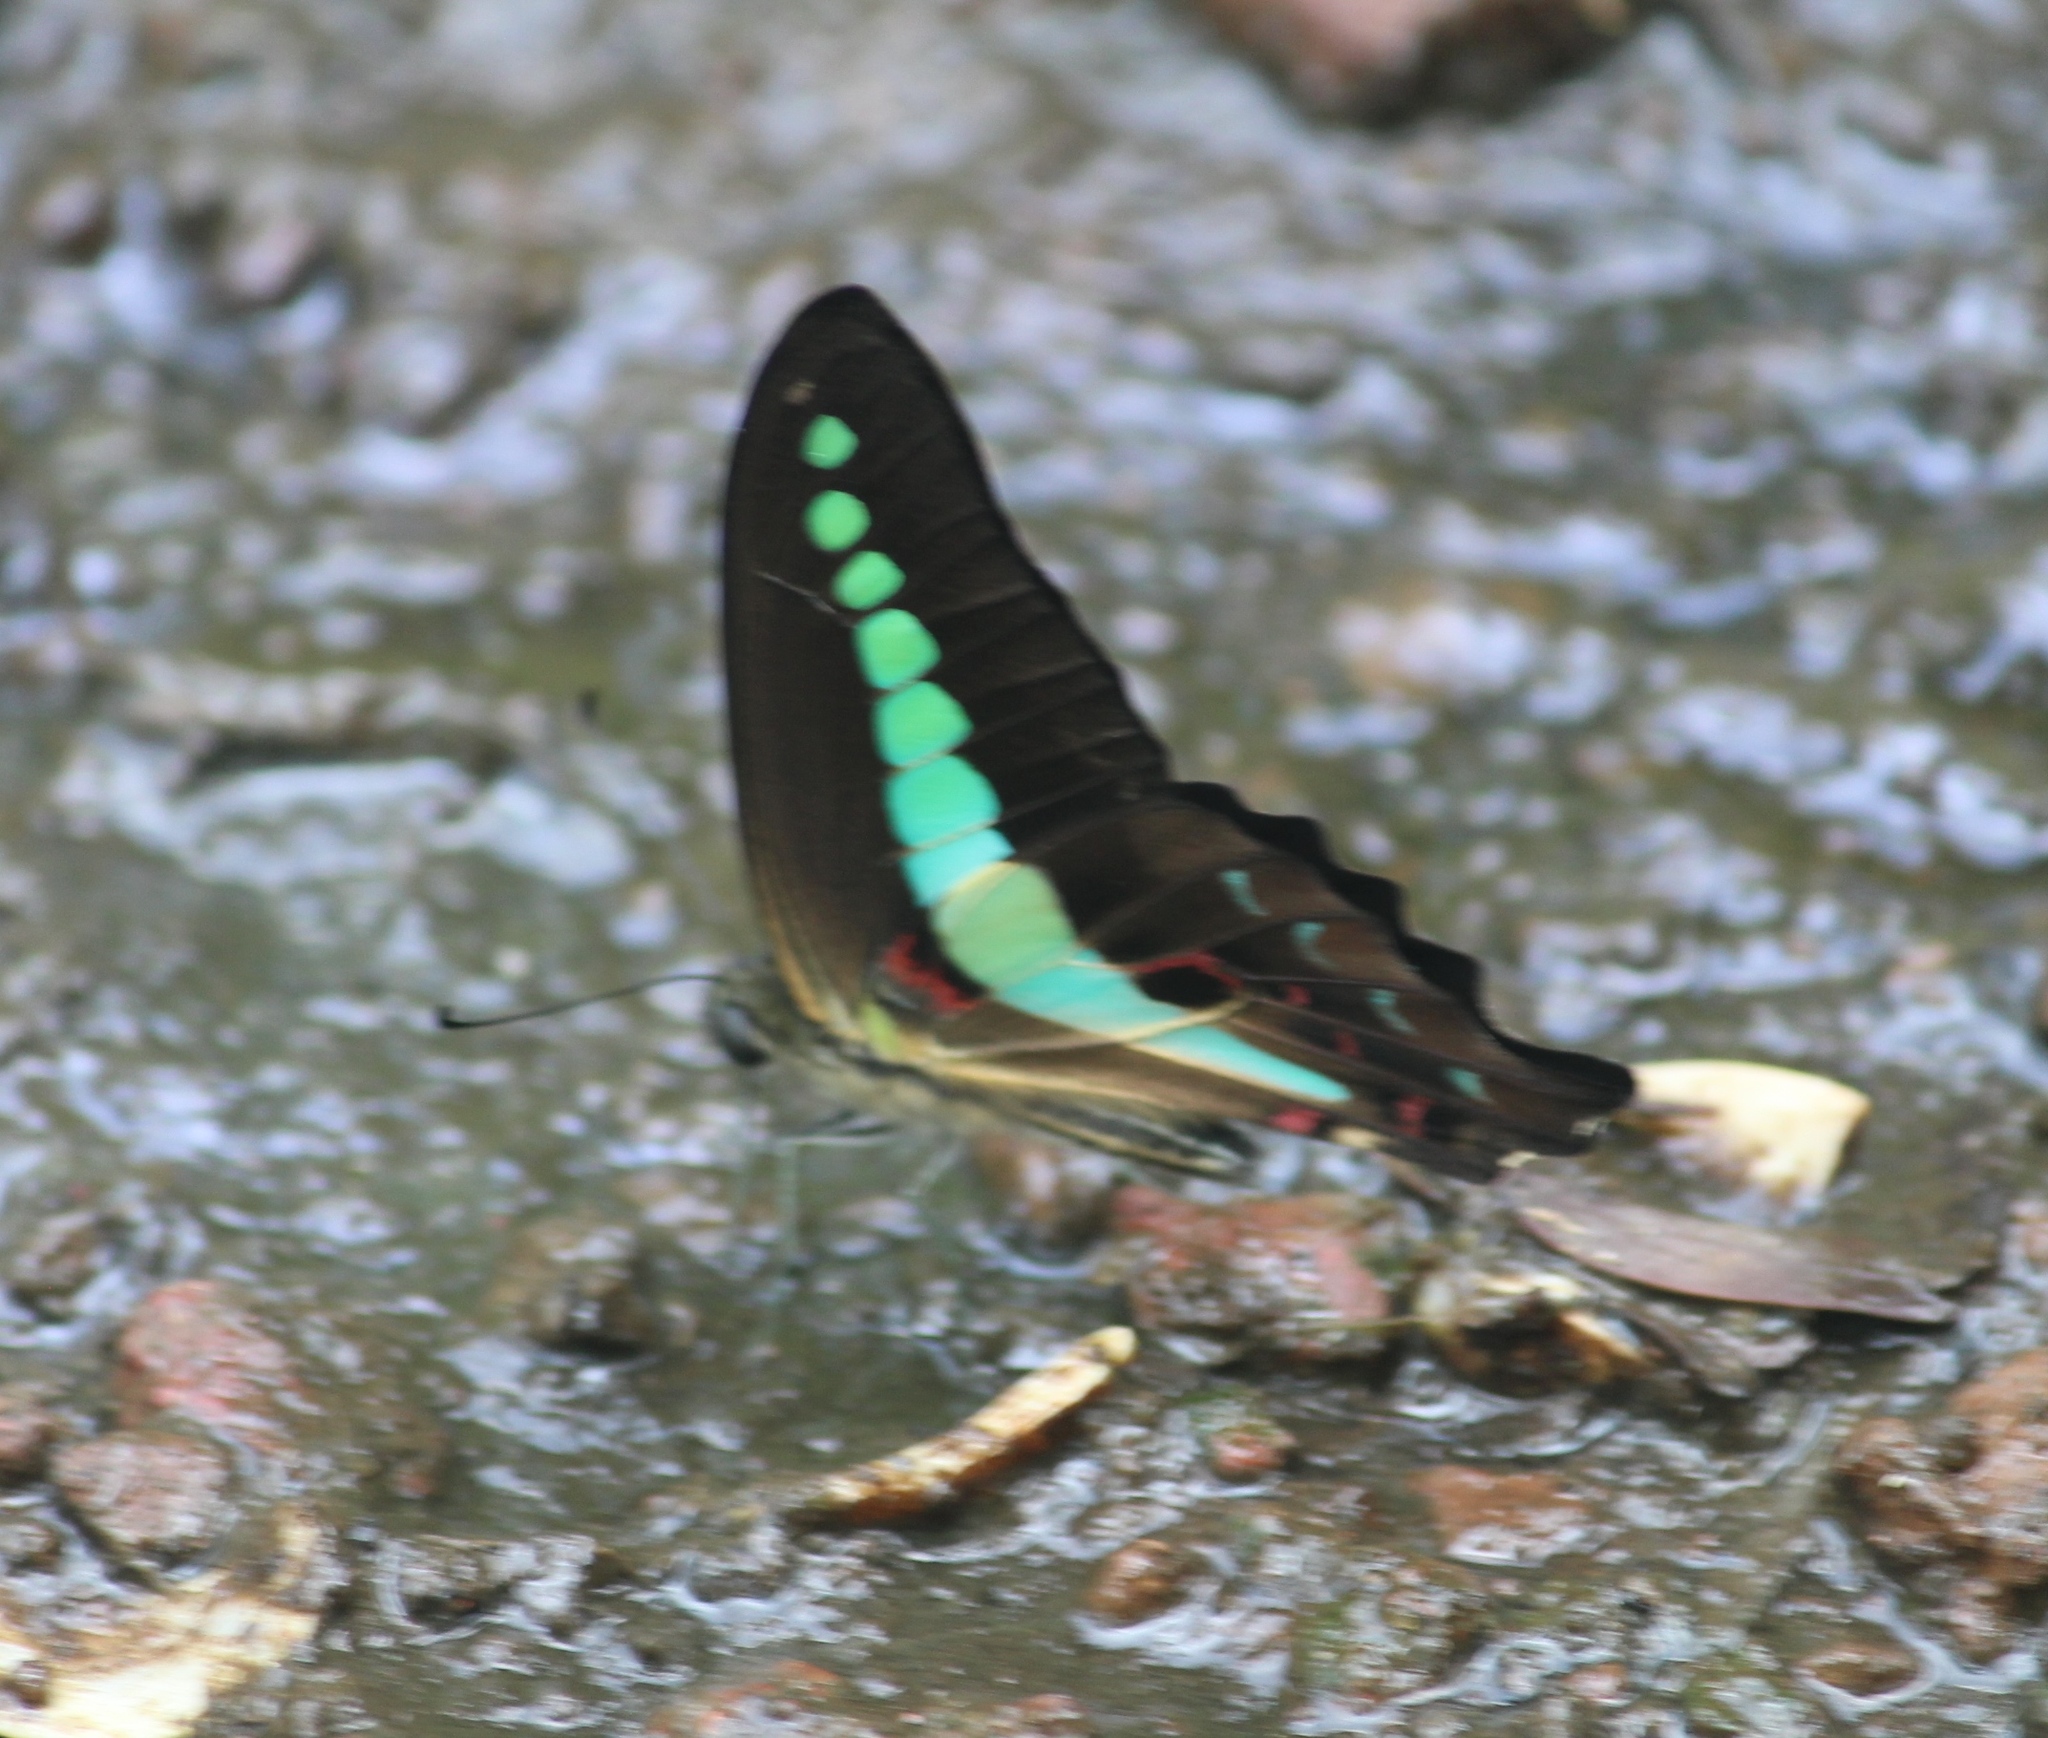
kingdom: Animalia
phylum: Arthropoda
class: Insecta
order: Lepidoptera
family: Papilionidae
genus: Graphium
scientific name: Graphium
